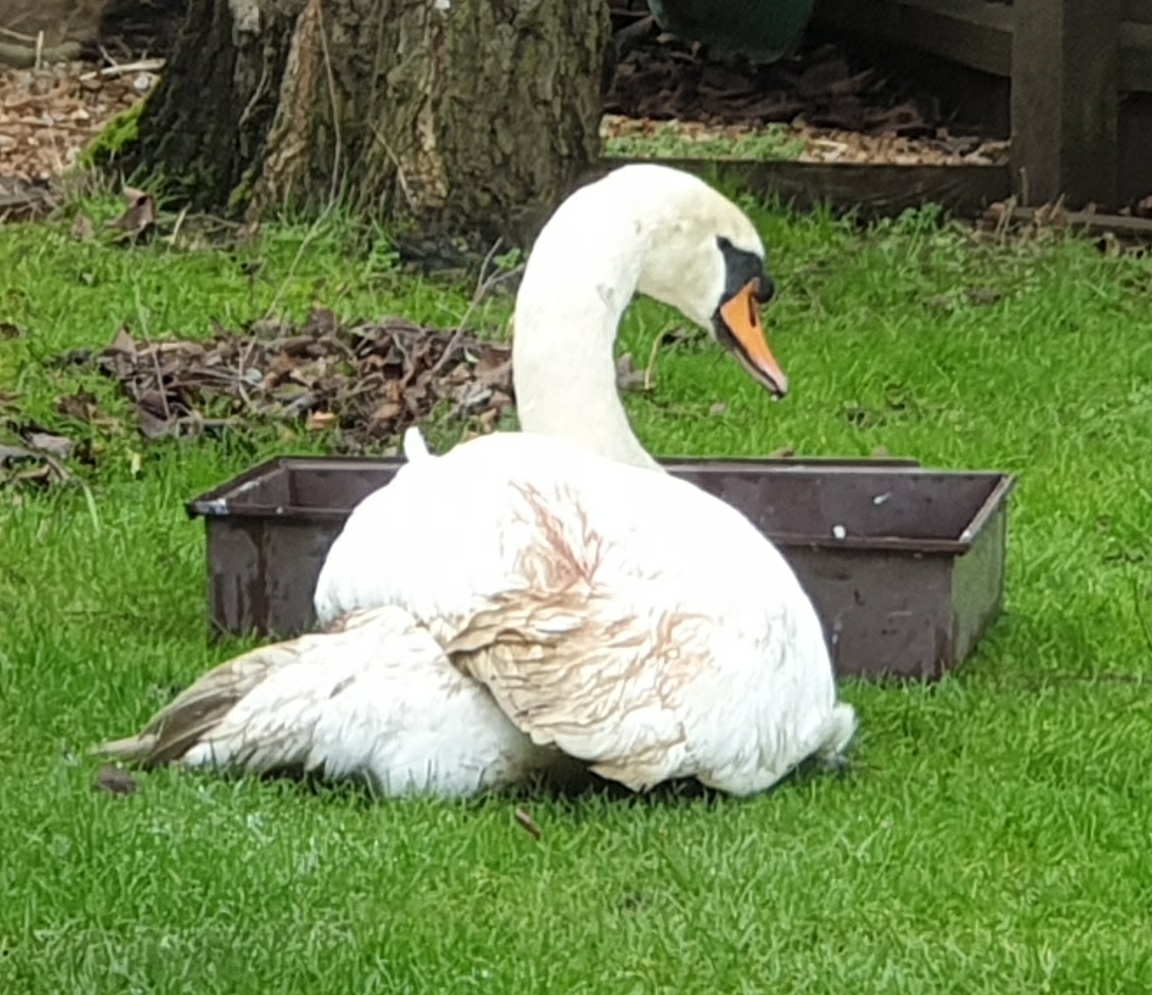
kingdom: Animalia
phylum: Chordata
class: Aves
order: Anseriformes
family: Anatidae
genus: Cygnus
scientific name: Cygnus olor
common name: Mute swan
